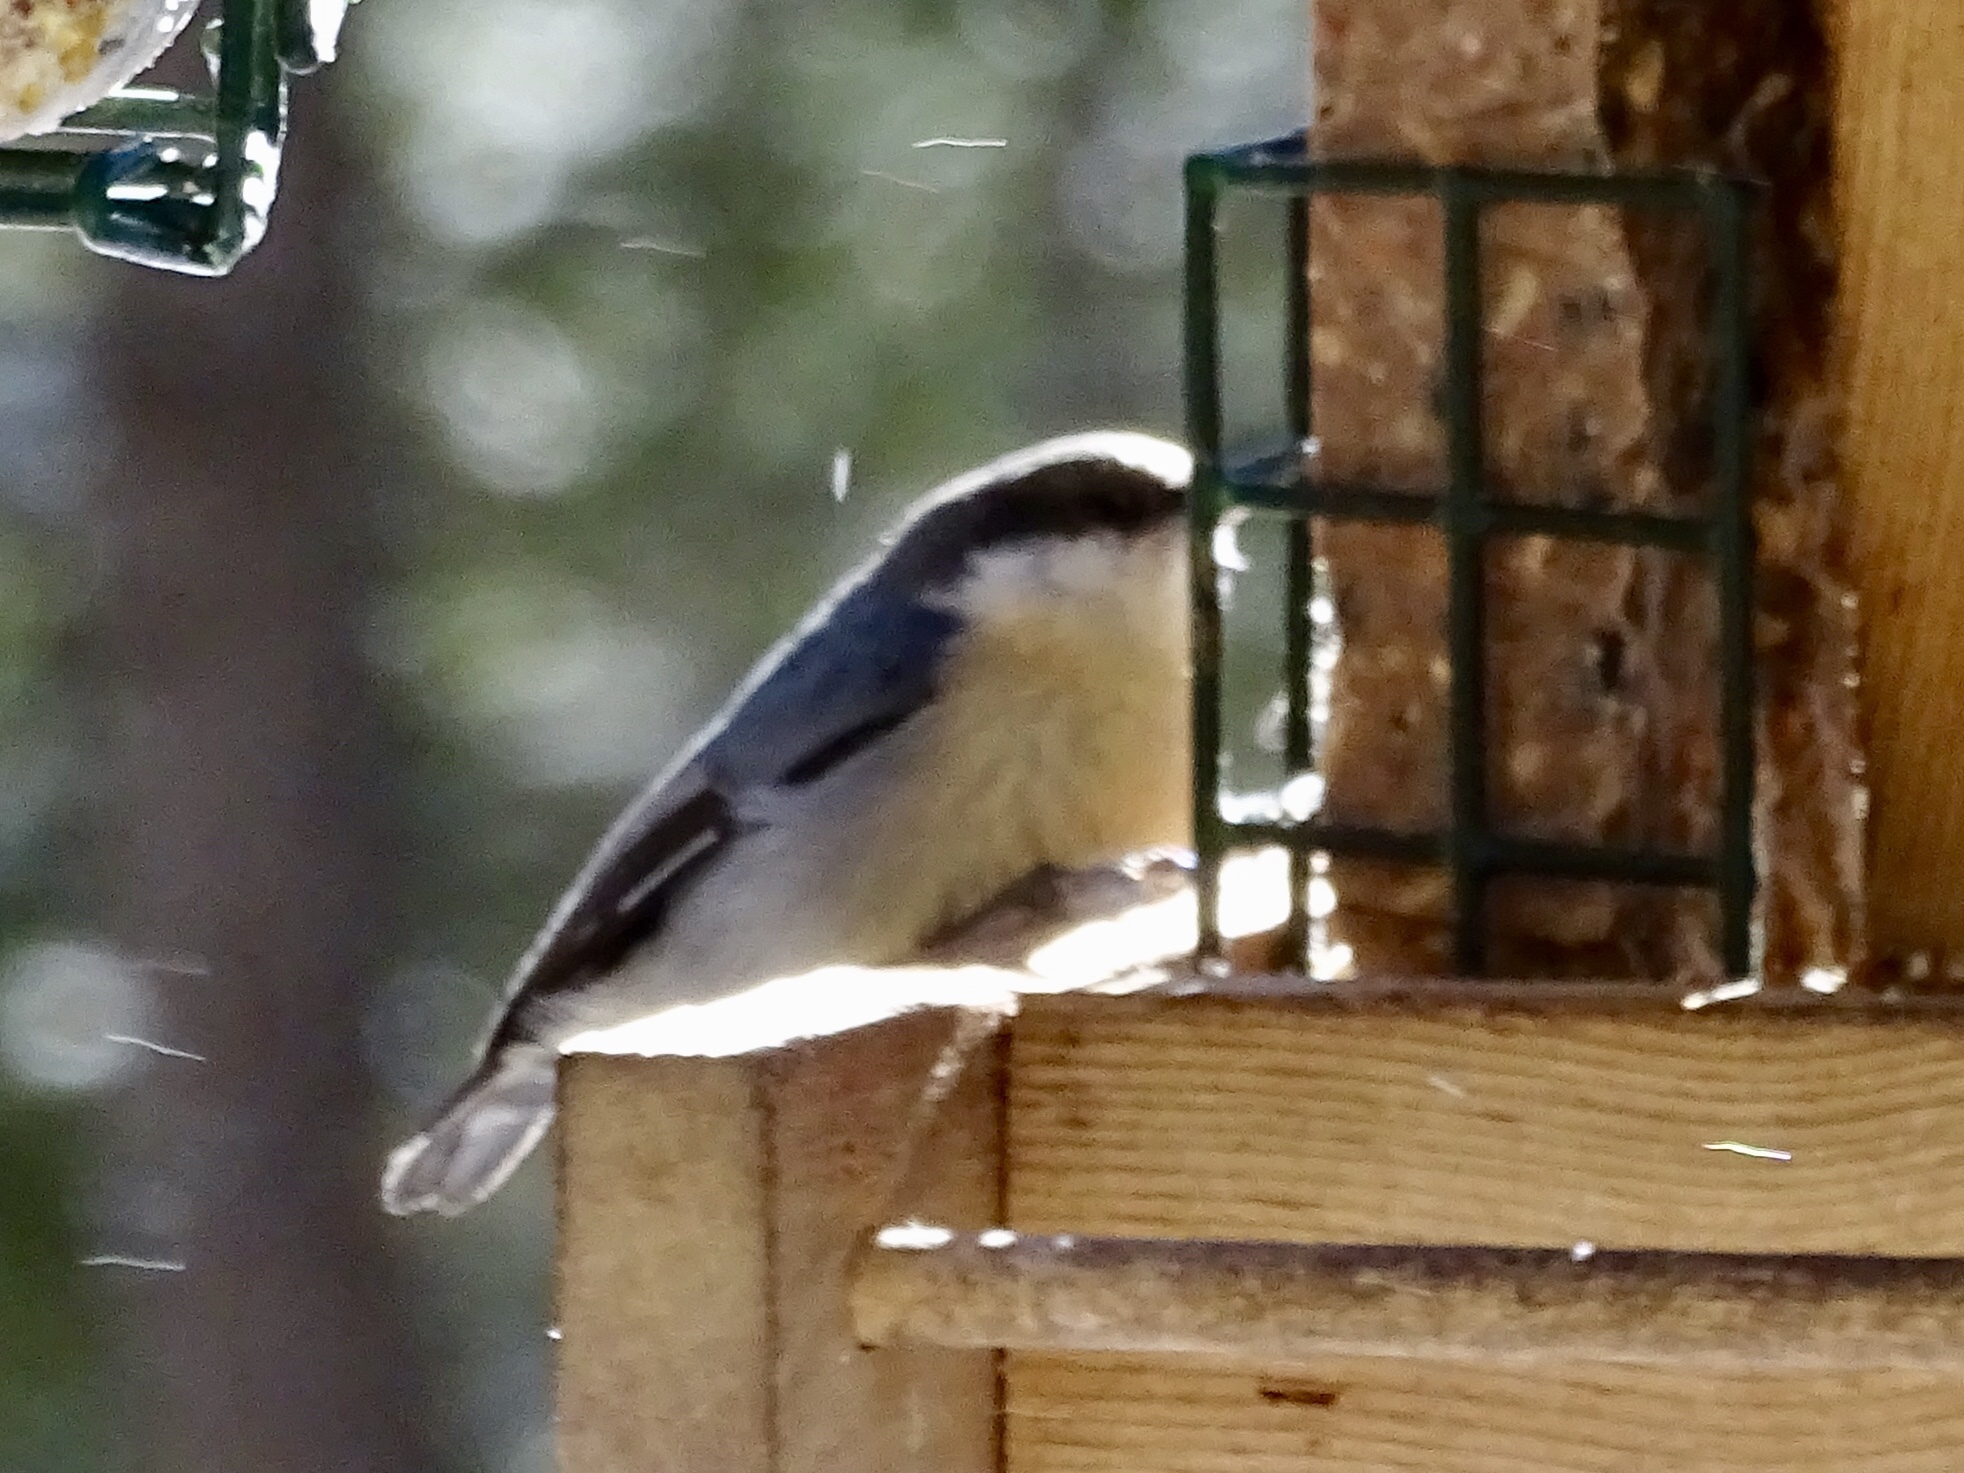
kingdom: Animalia
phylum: Chordata
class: Aves
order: Passeriformes
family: Sittidae
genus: Sitta
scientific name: Sitta pygmaea
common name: Pygmy nuthatch
